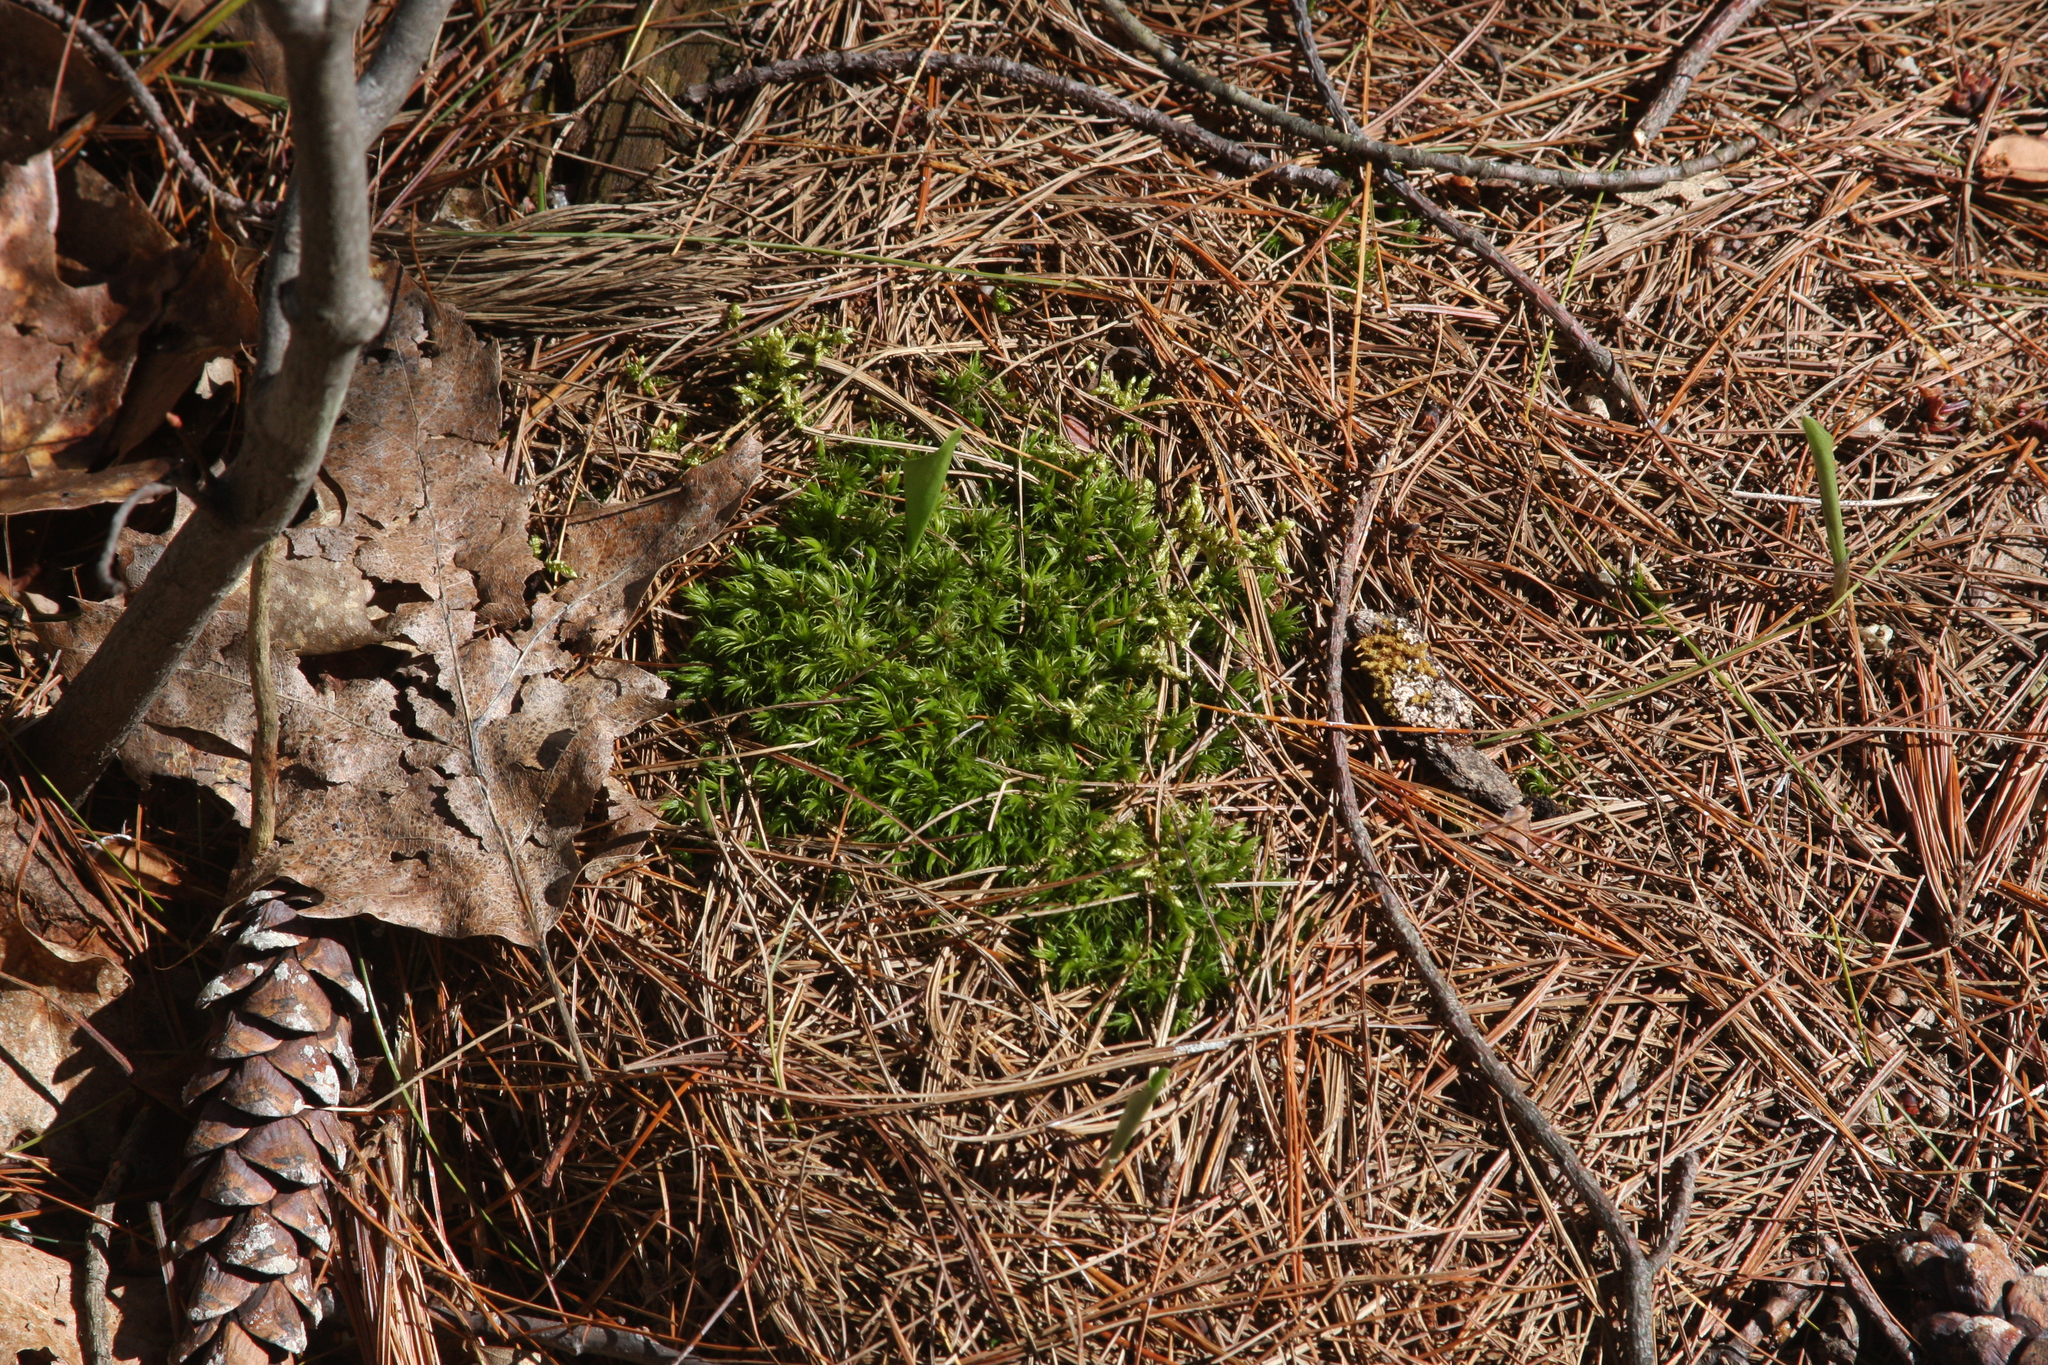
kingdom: Plantae
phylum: Tracheophyta
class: Liliopsida
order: Asparagales
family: Asparagaceae
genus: Maianthemum
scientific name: Maianthemum canadense
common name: False lily-of-the-valley
